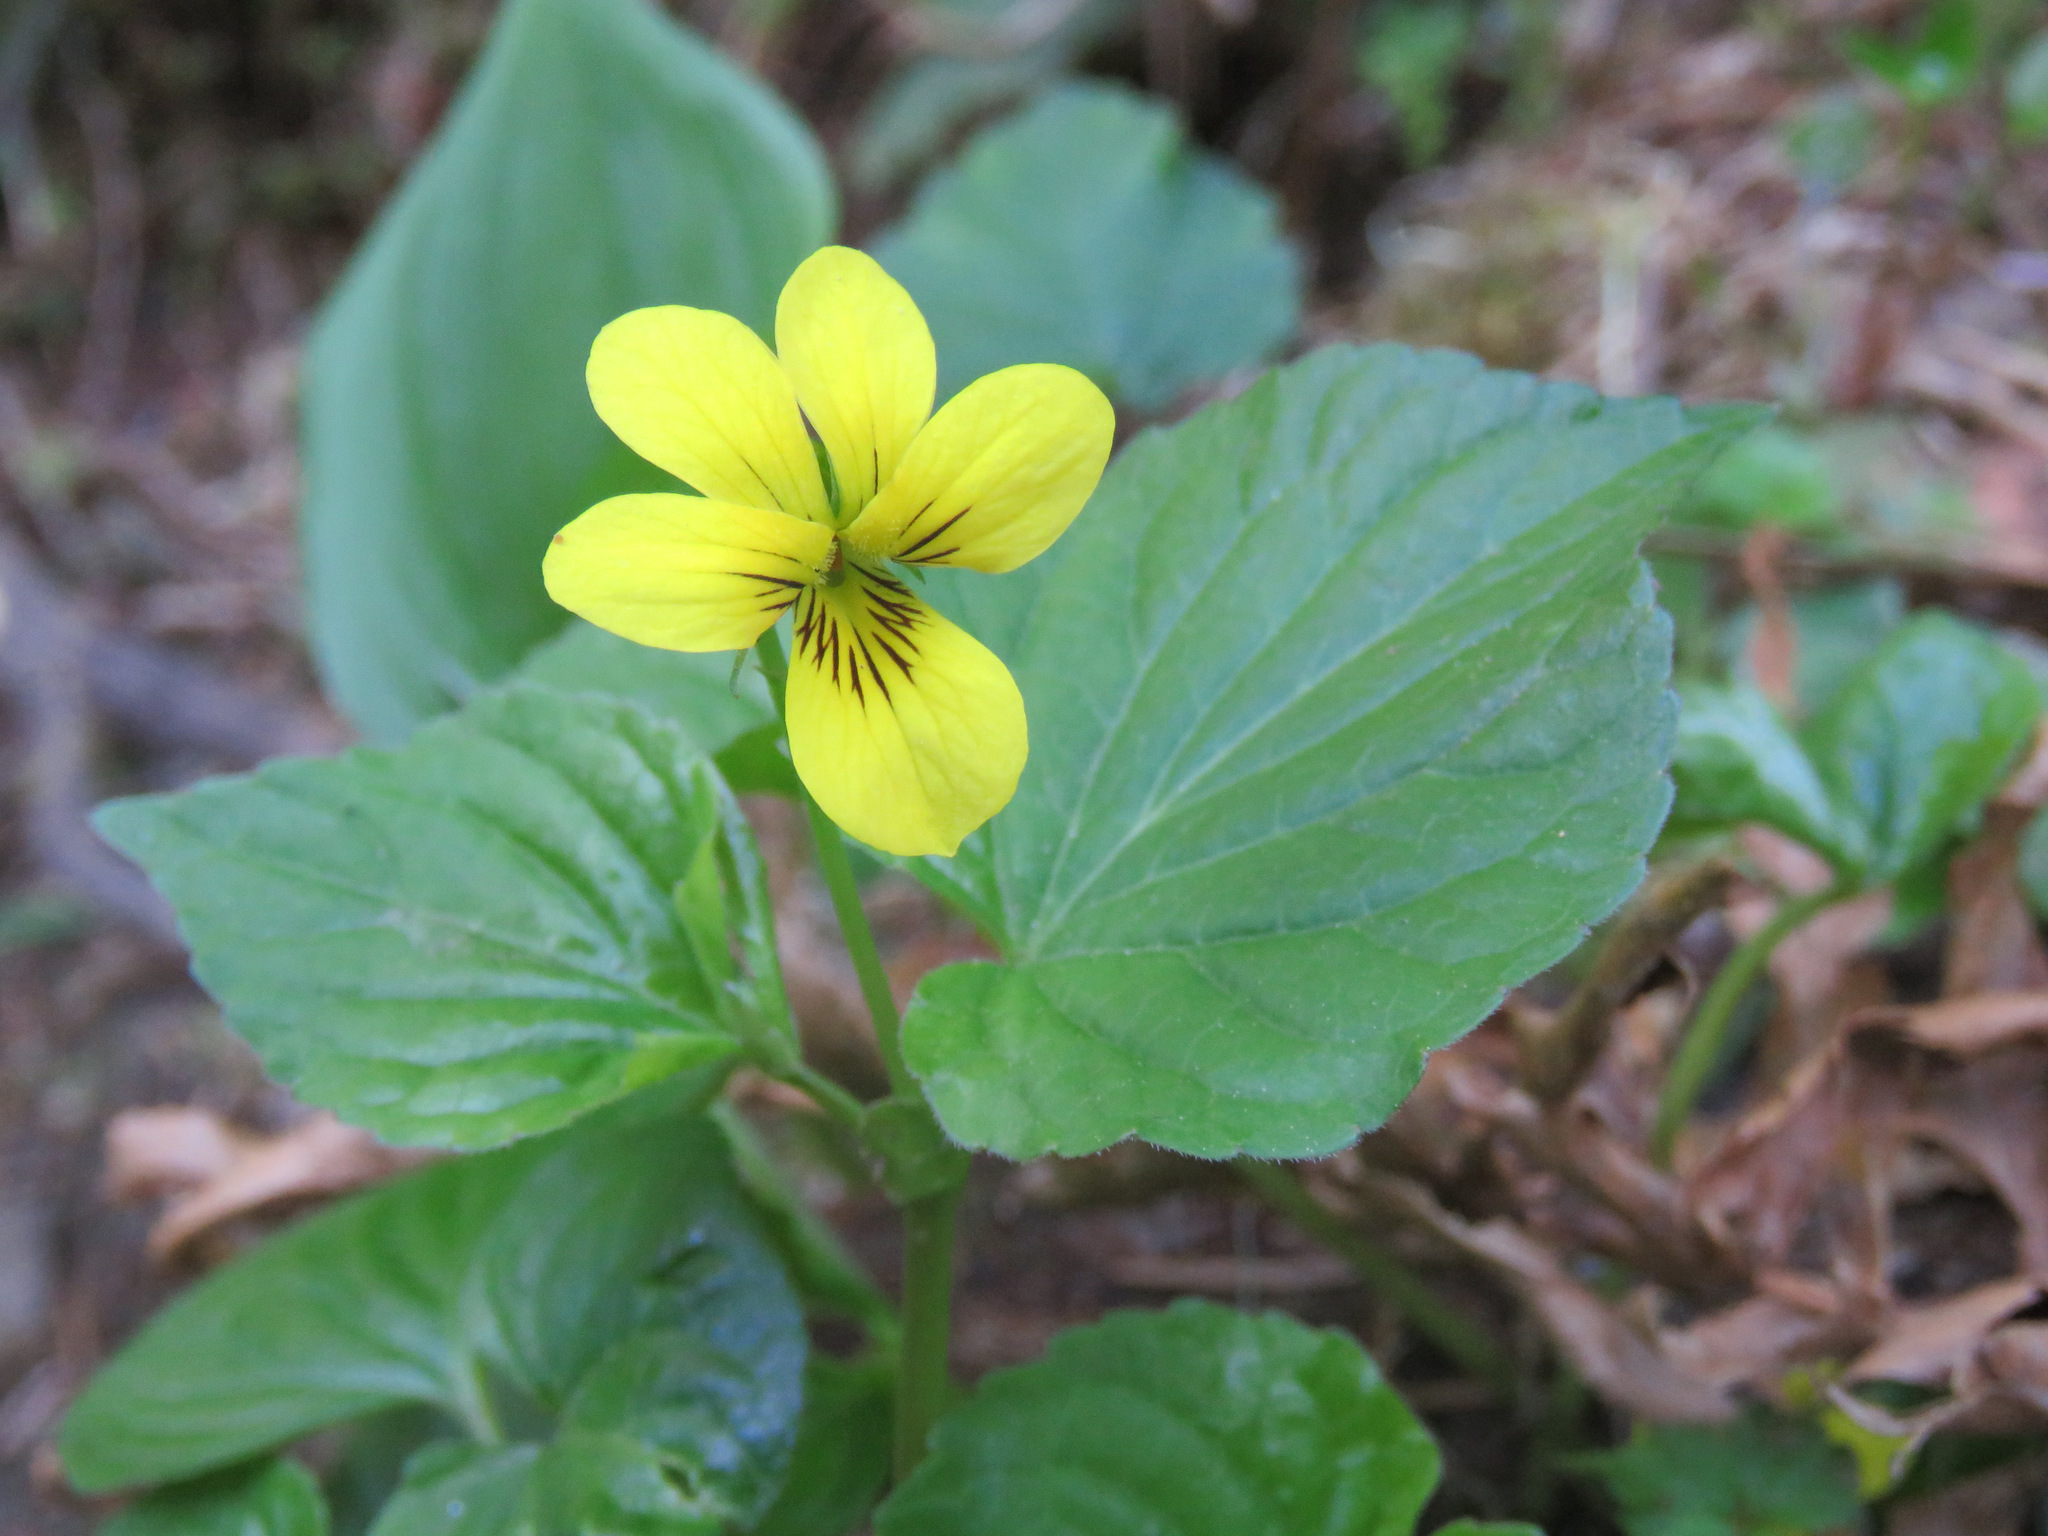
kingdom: Plantae
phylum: Tracheophyta
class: Magnoliopsida
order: Malpighiales
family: Violaceae
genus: Viola
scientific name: Viola glabella
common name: Stream violet
